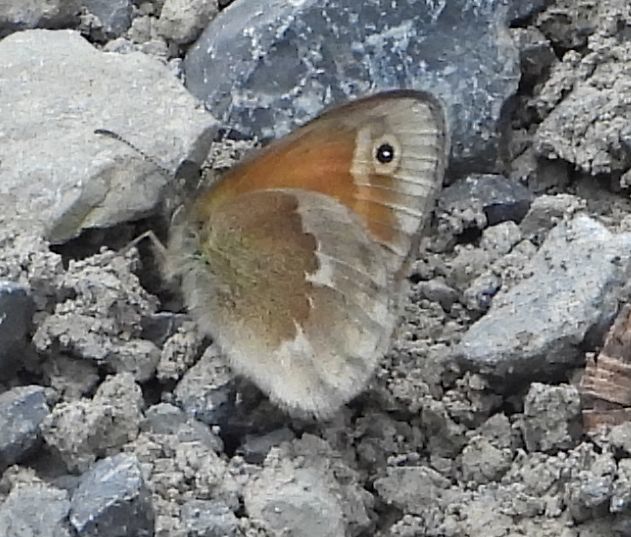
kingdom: Animalia
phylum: Arthropoda
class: Insecta
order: Lepidoptera
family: Nymphalidae
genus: Coenonympha
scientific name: Coenonympha california
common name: Common ringlet
